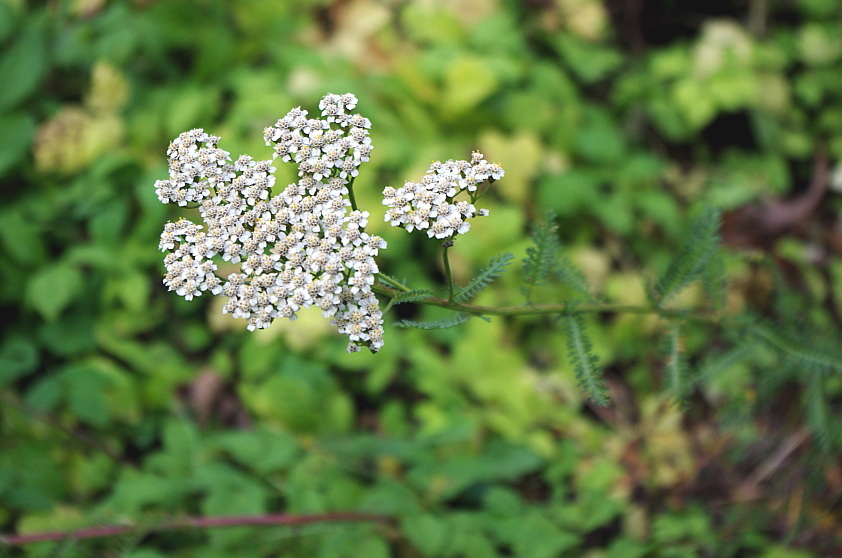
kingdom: Plantae
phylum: Tracheophyta
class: Magnoliopsida
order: Asterales
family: Asteraceae
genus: Achillea
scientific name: Achillea millefolium
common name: Yarrow
